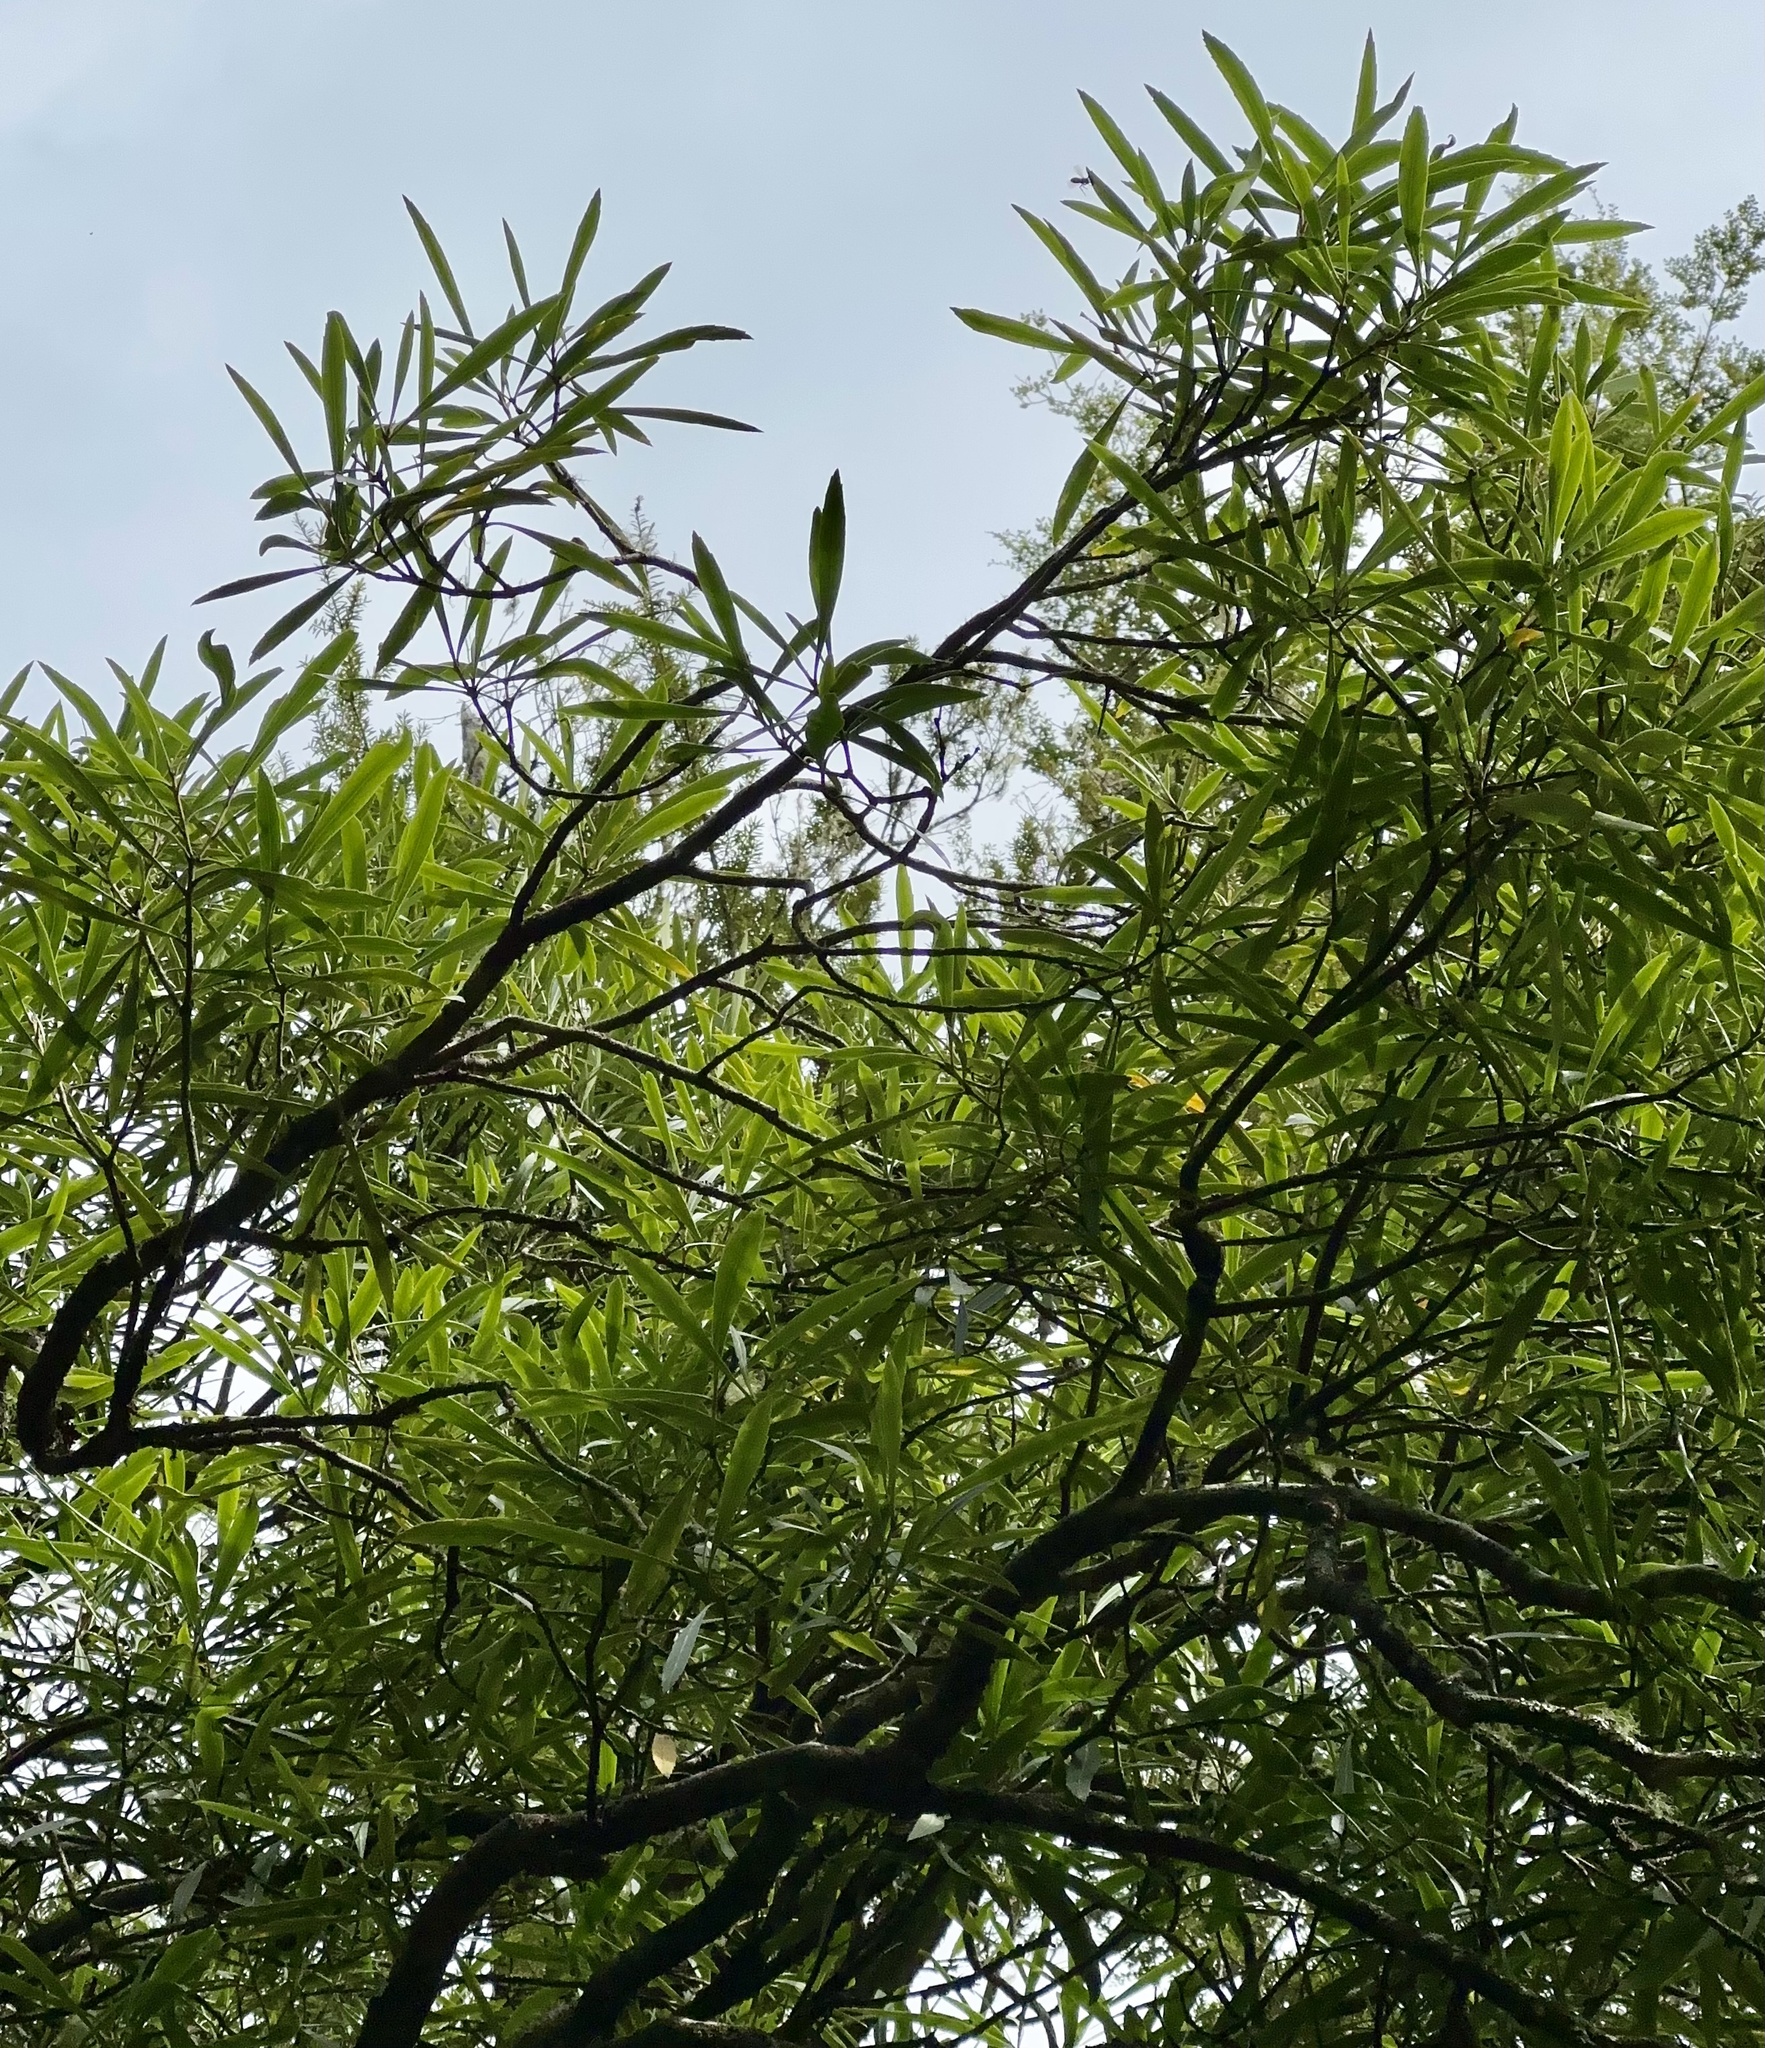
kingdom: Plantae
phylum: Tracheophyta
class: Magnoliopsida
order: Apiales
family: Araliaceae
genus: Pseudopanax
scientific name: Pseudopanax crassifolius
